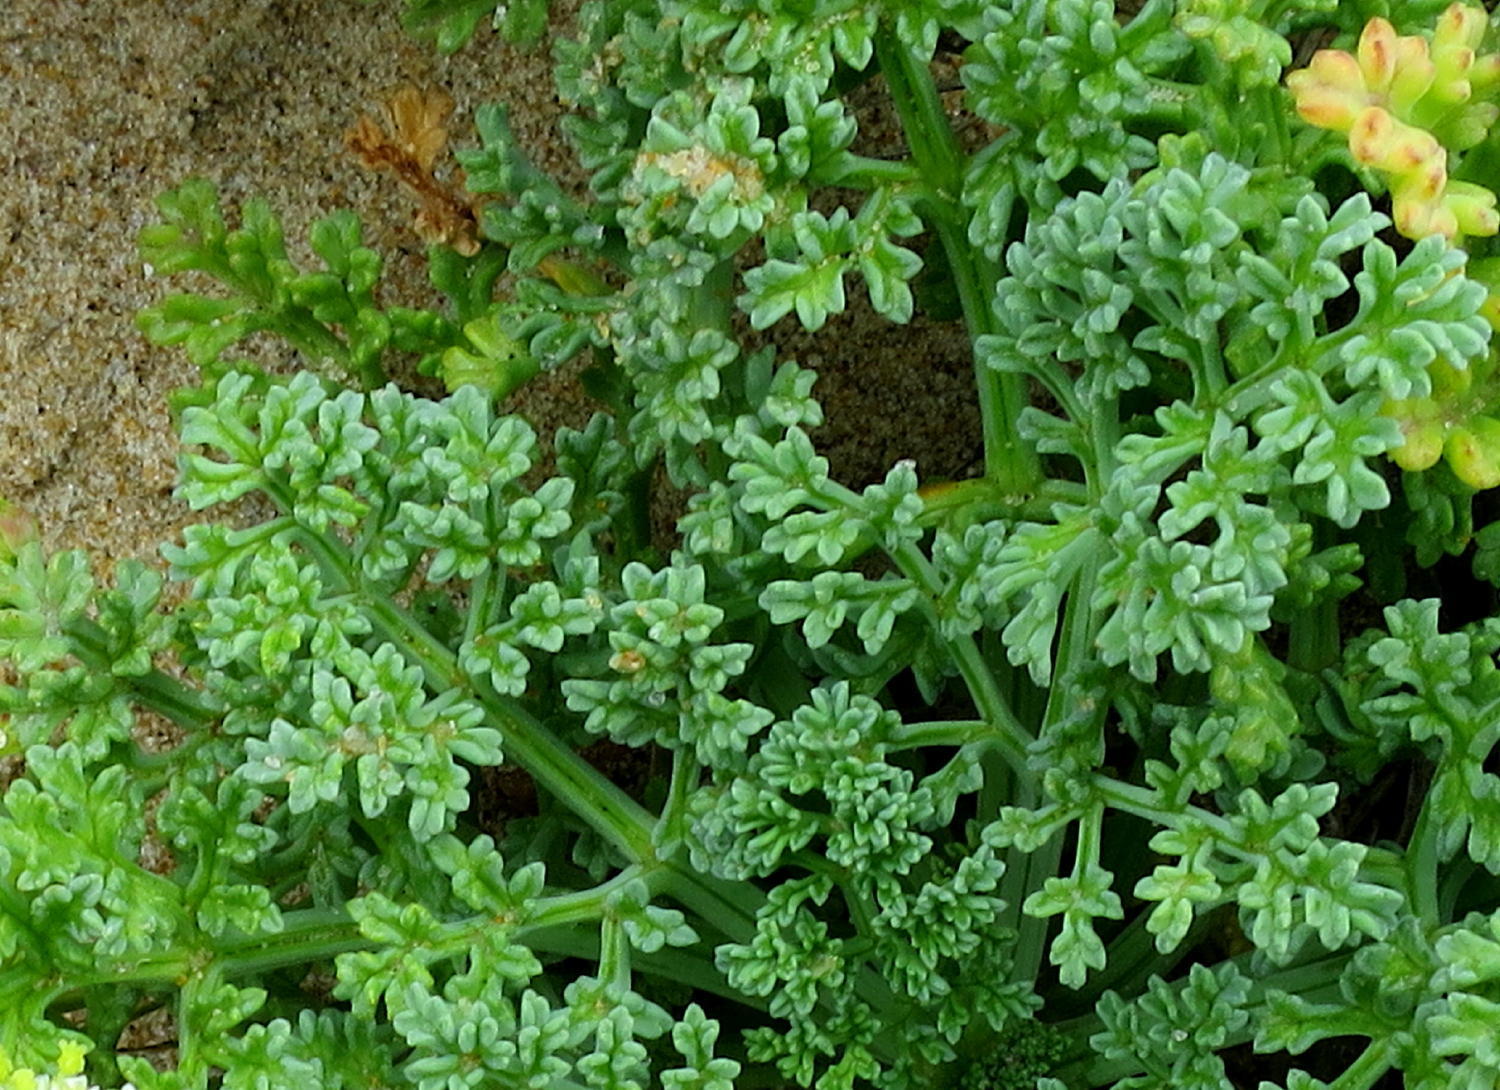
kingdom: Plantae
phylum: Tracheophyta
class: Magnoliopsida
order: Apiales
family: Apiaceae
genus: Dasispermum
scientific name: Dasispermum suffruticosum
